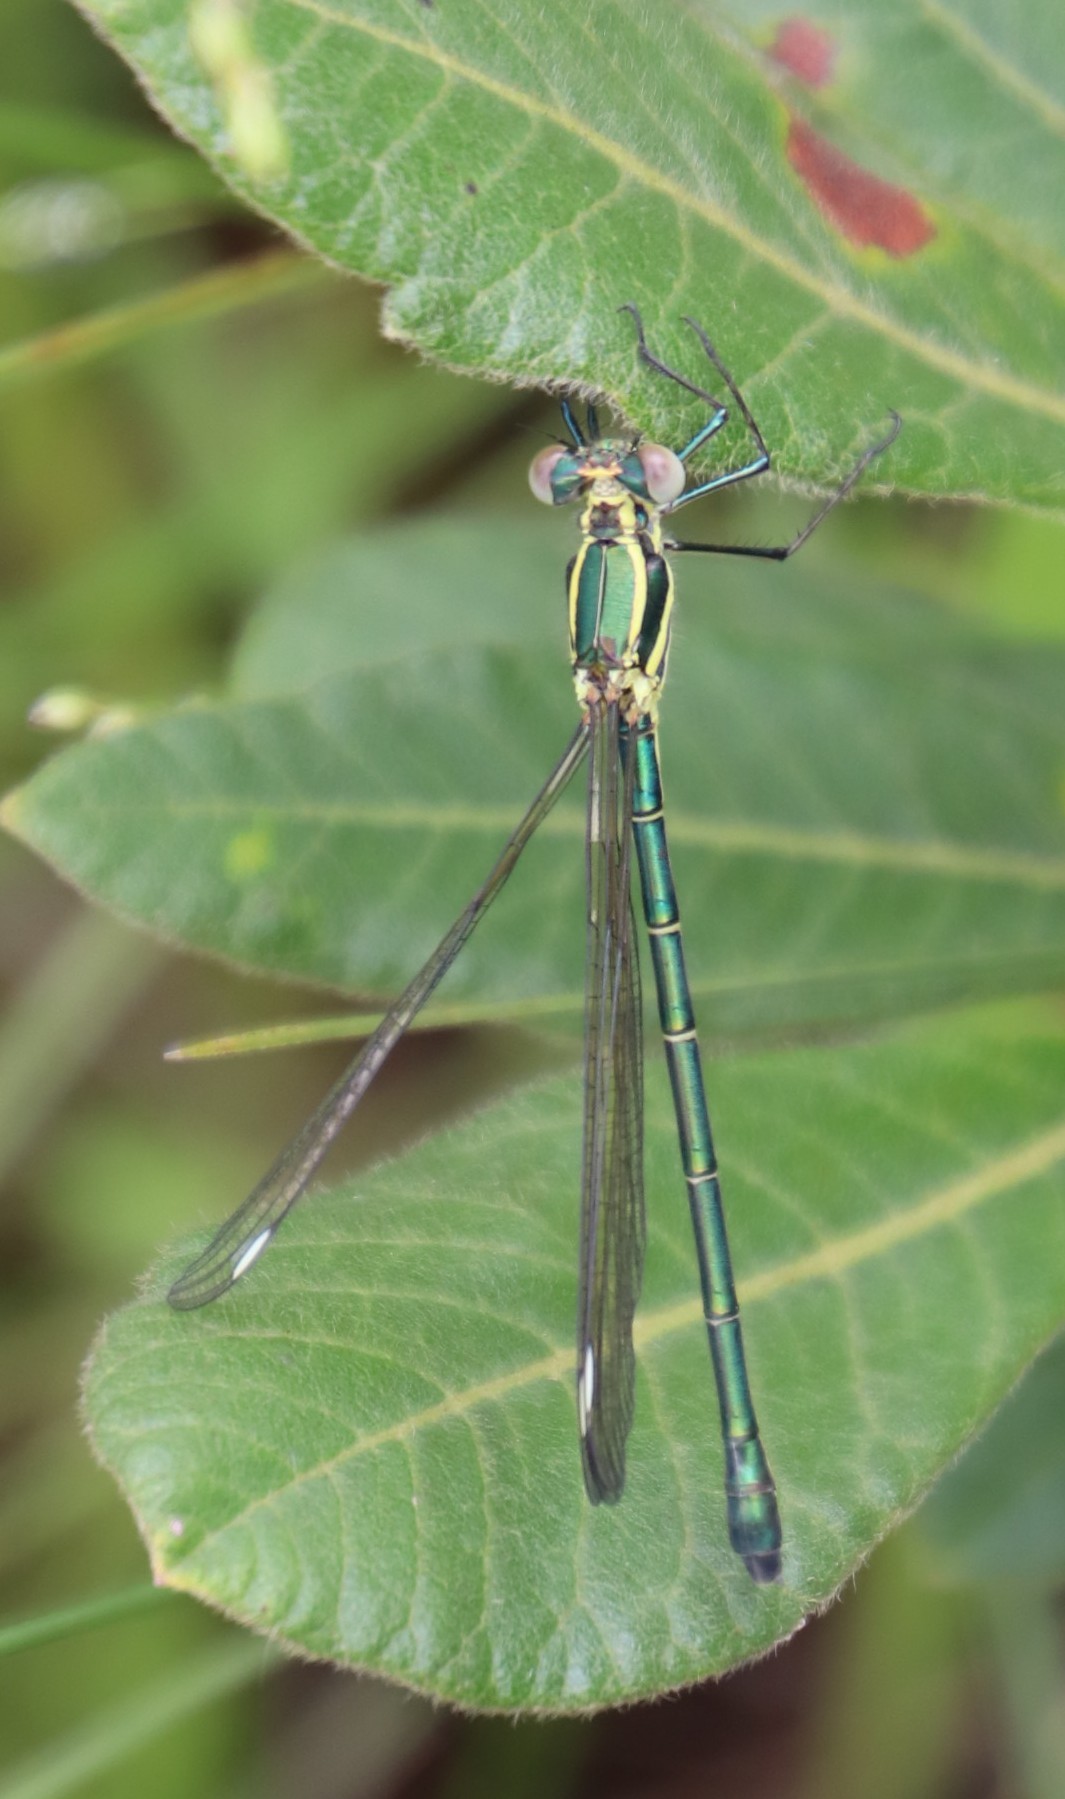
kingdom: Animalia
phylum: Arthropoda
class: Insecta
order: Odonata
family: Synlestidae
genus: Chlorolestes
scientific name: Chlorolestes fasciatus
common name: Mountain malachite
